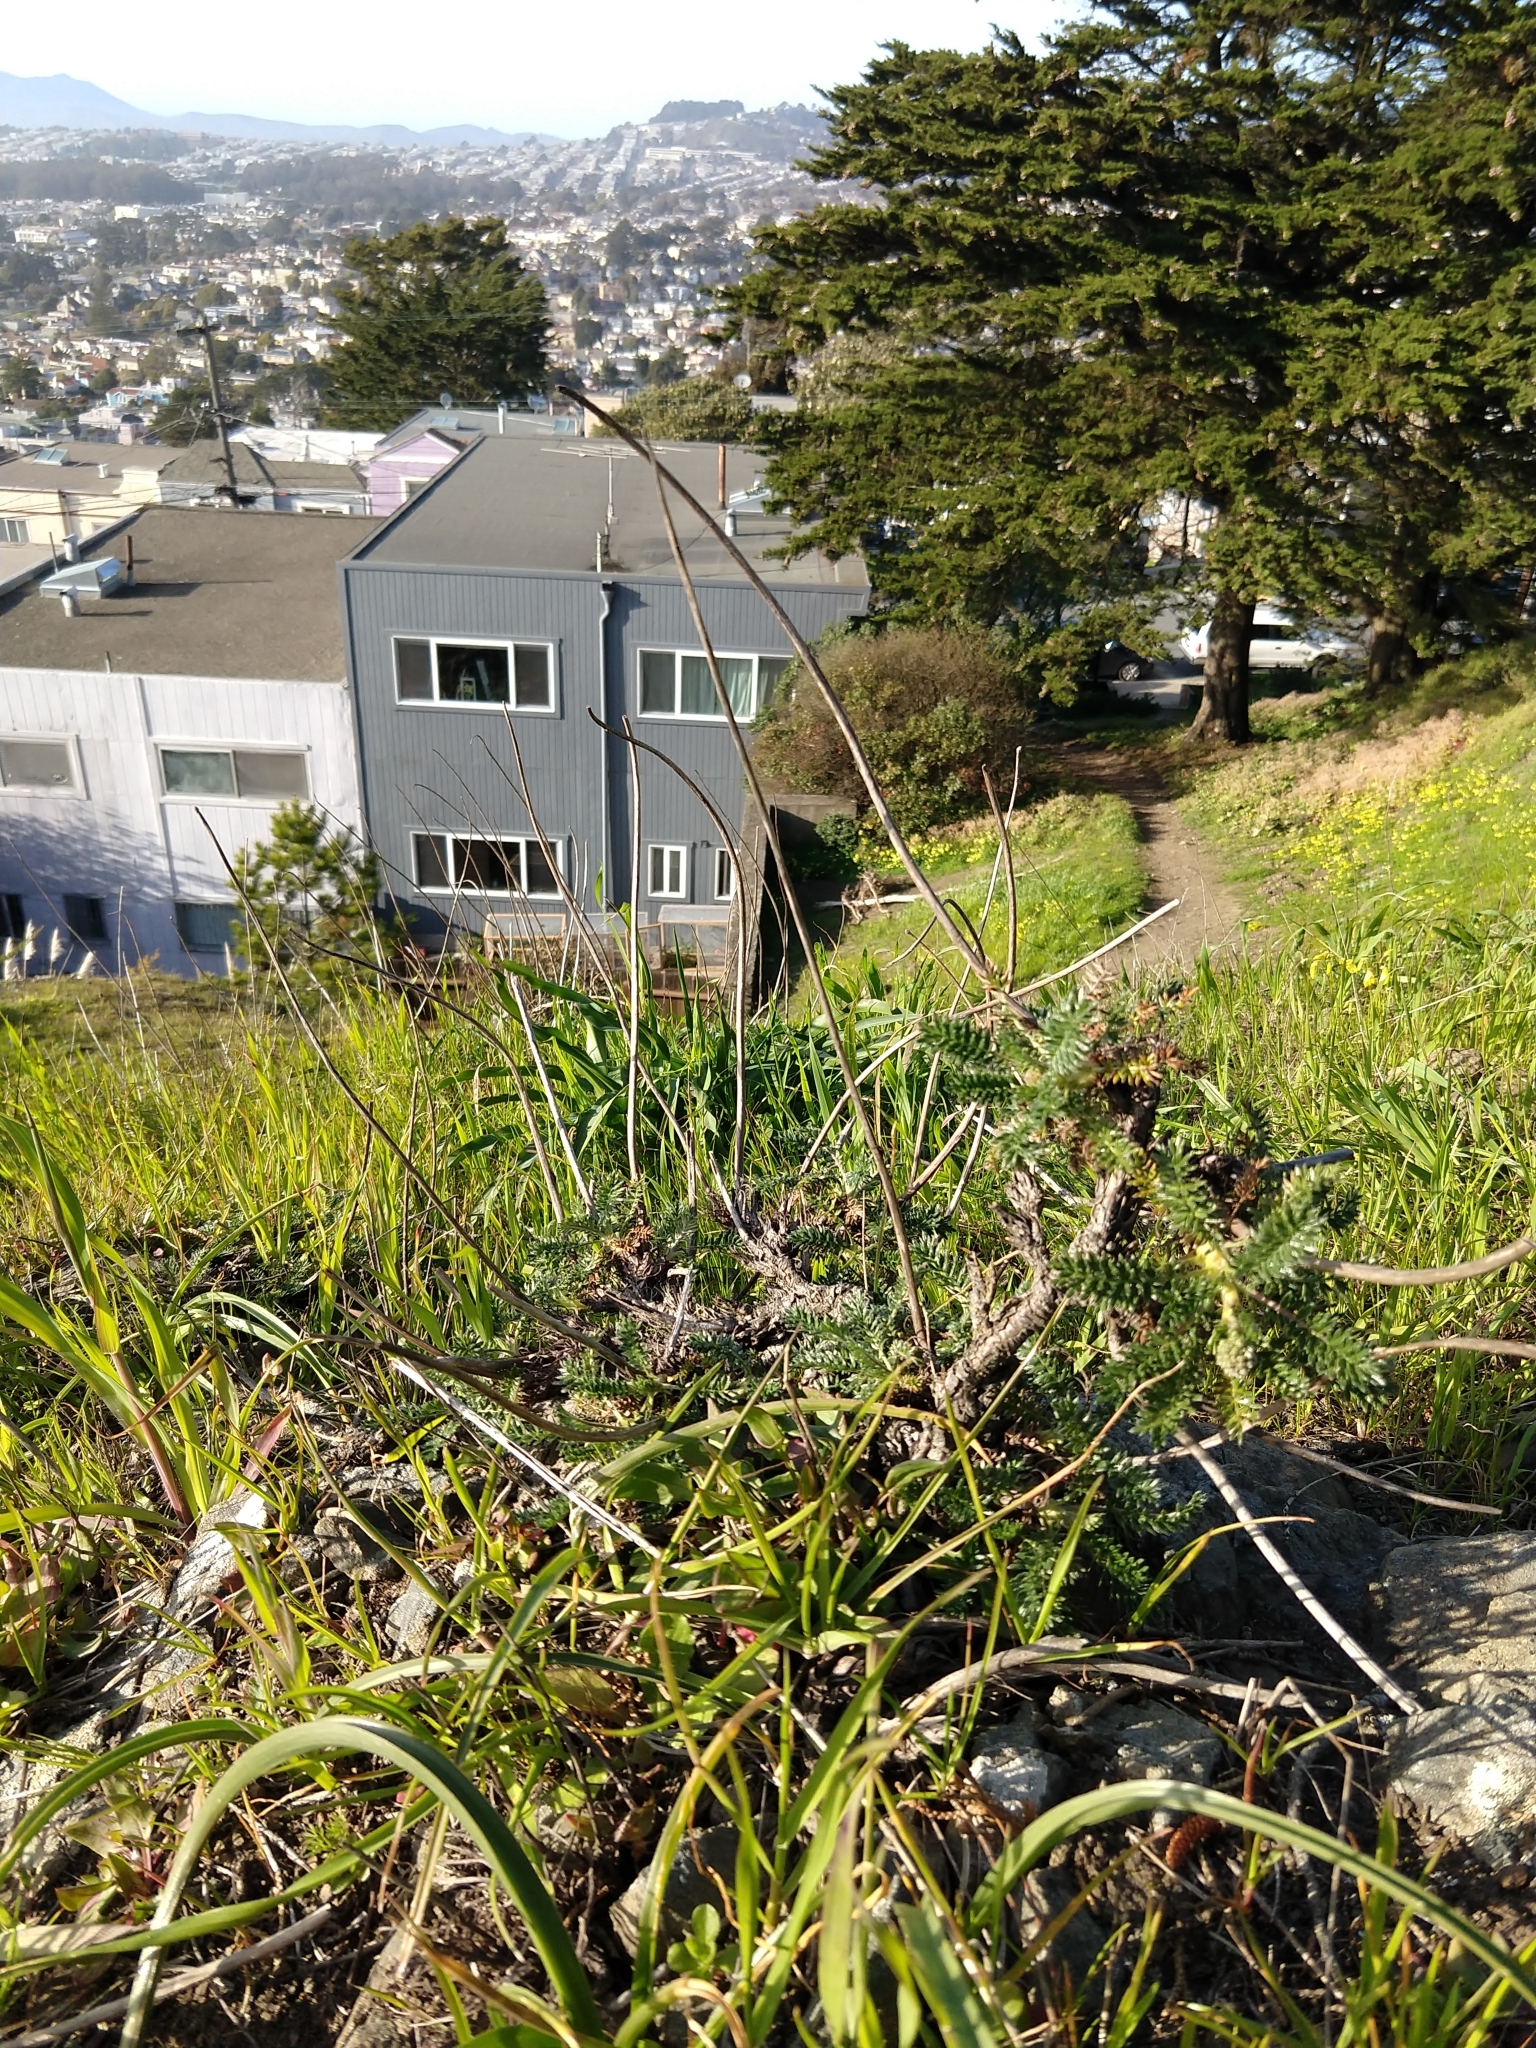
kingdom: Plantae
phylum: Tracheophyta
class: Magnoliopsida
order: Rosales
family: Rosaceae
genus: Acaena
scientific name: Acaena pinnatifida
